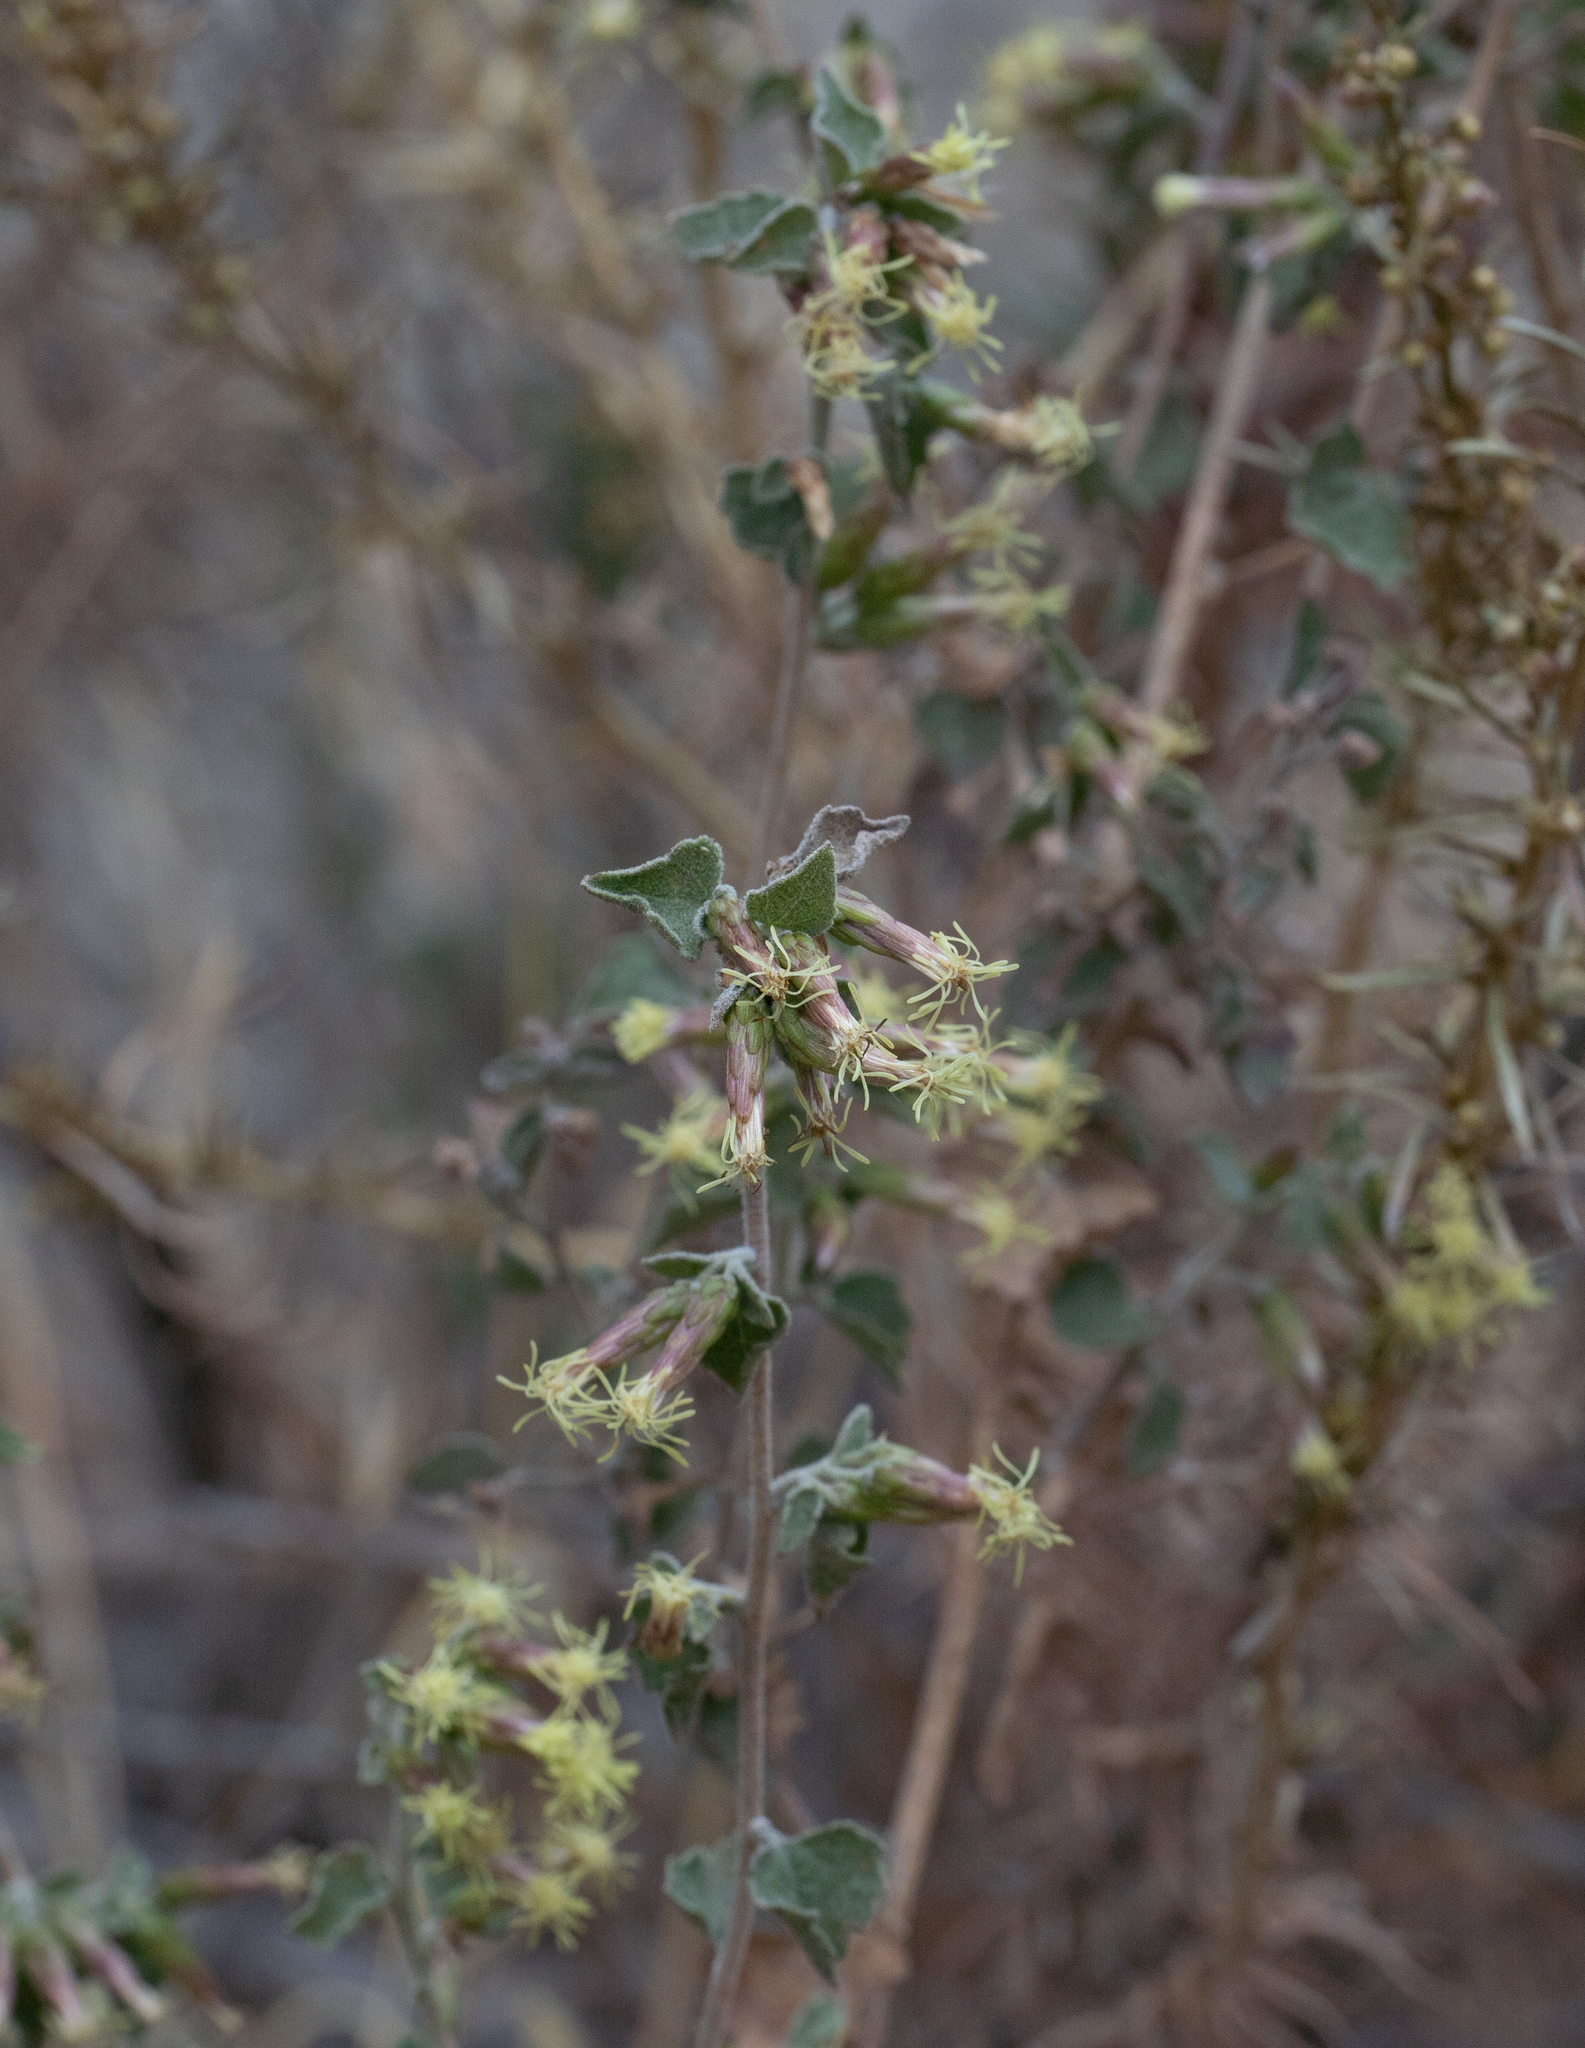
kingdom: Plantae
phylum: Tracheophyta
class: Magnoliopsida
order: Asterales
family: Asteraceae
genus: Brickellia
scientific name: Brickellia californica
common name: California brickellbush
